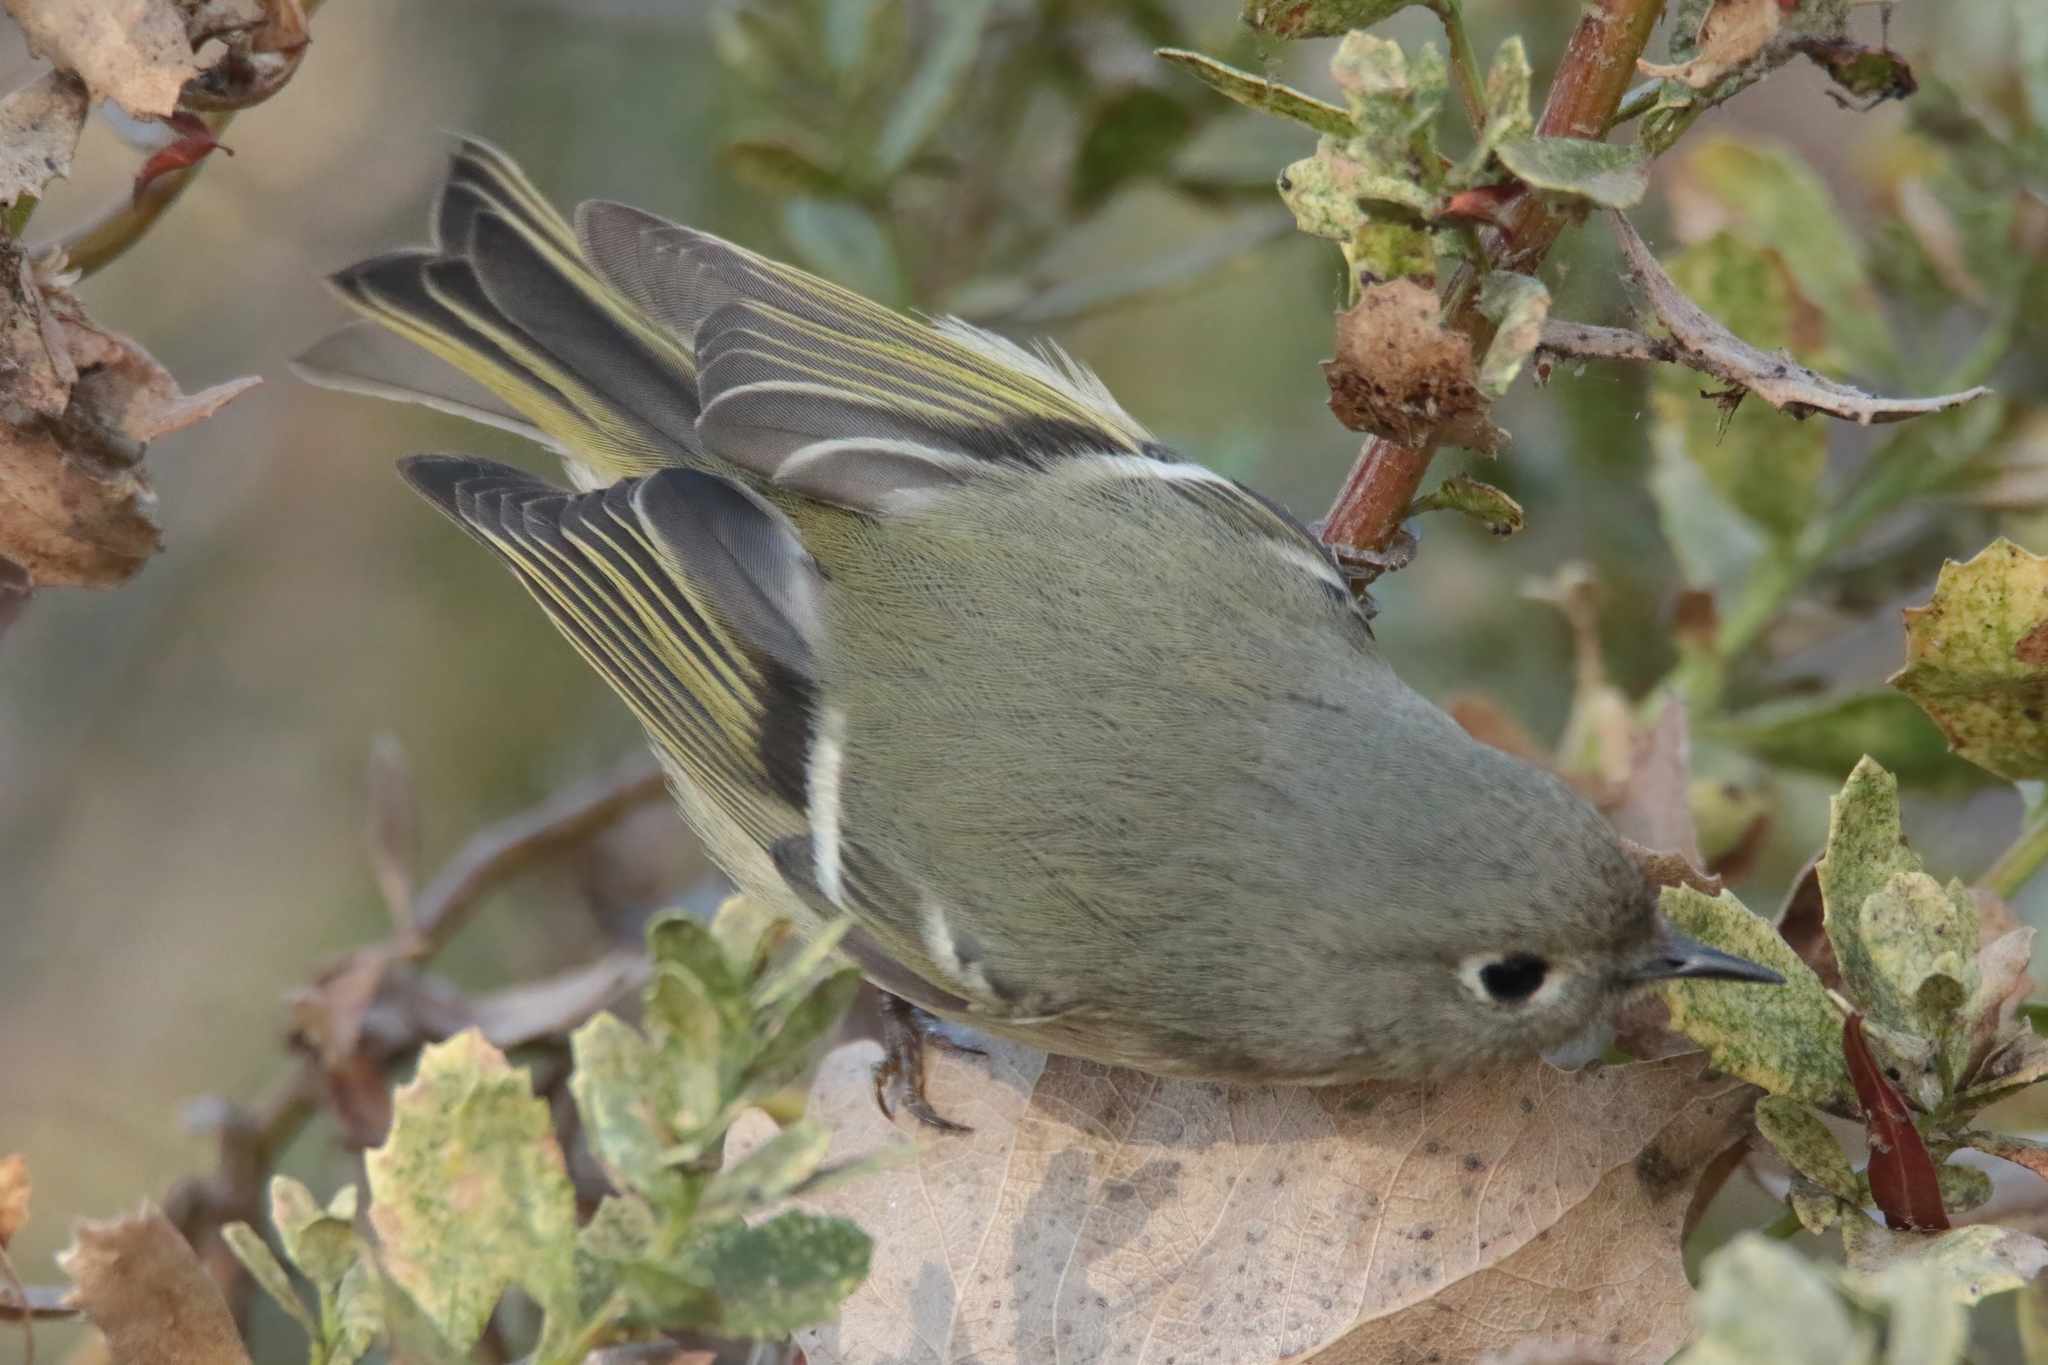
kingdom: Animalia
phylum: Chordata
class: Aves
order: Passeriformes
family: Regulidae
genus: Regulus
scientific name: Regulus calendula
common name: Ruby-crowned kinglet
